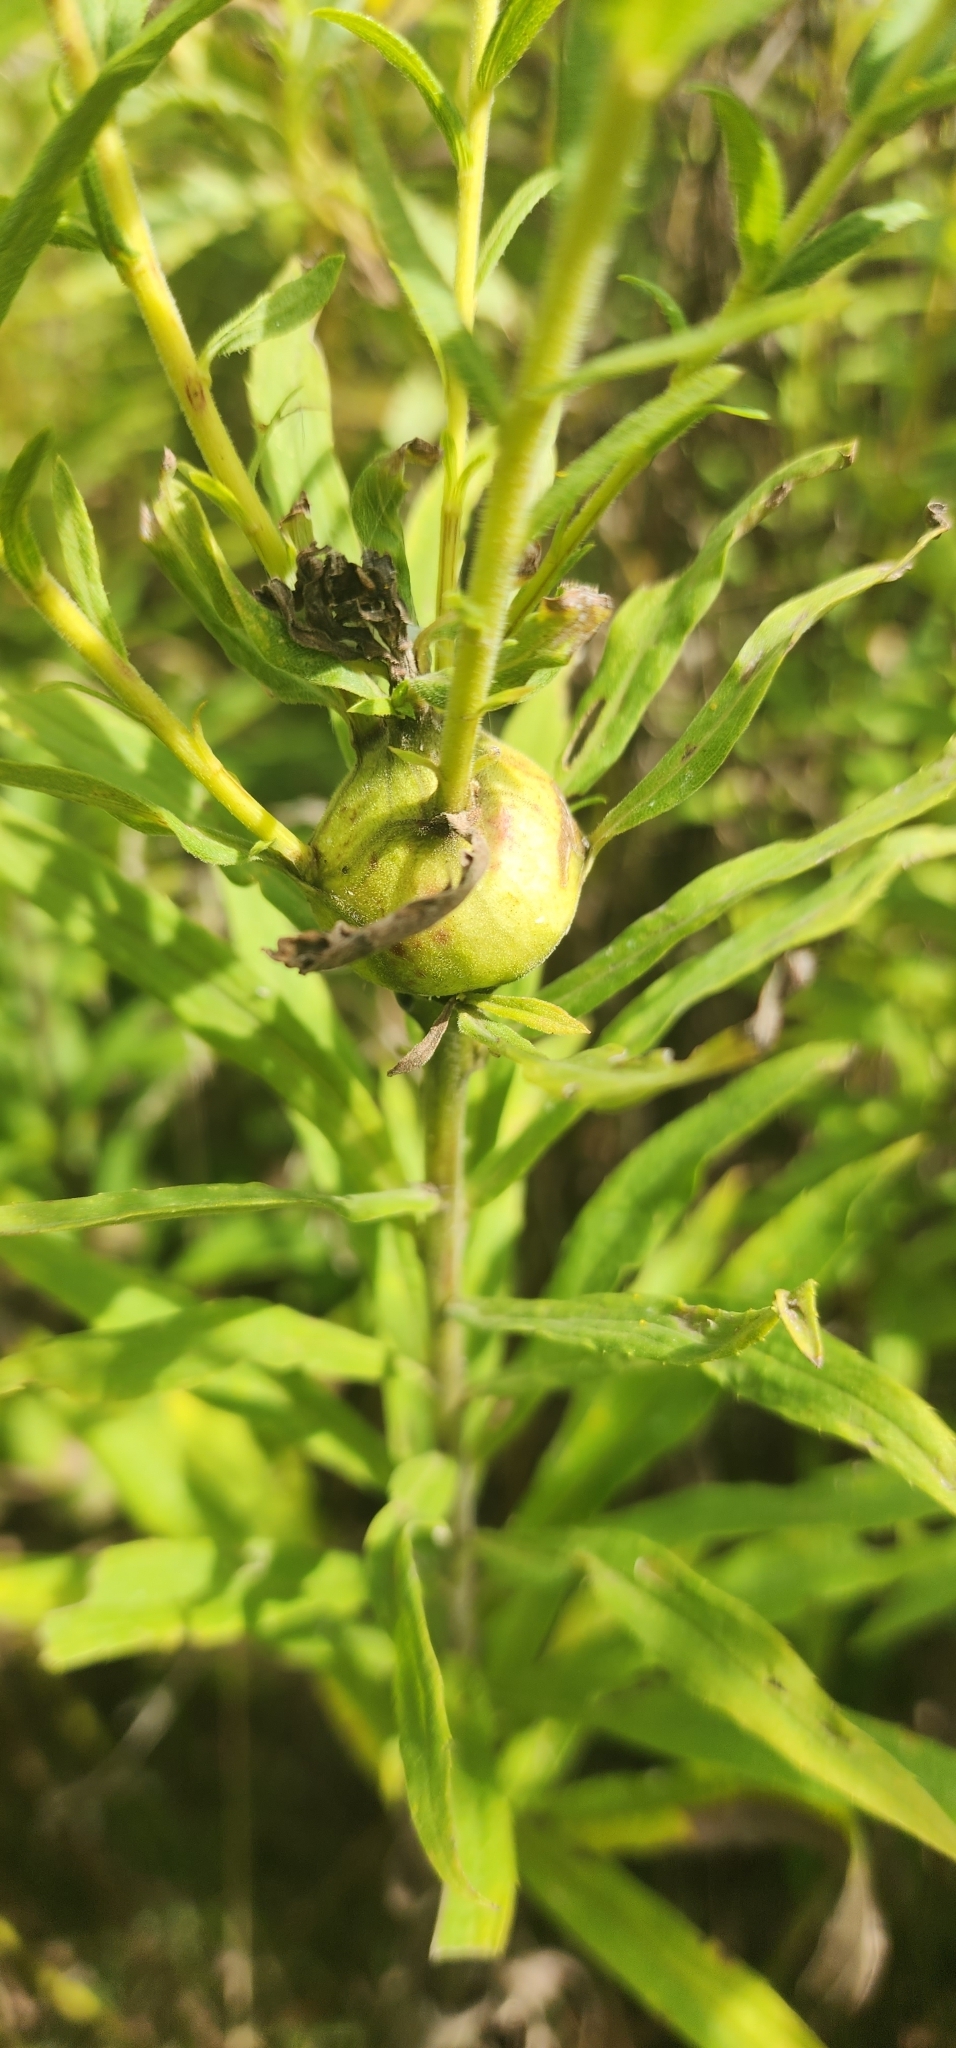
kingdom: Animalia
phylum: Arthropoda
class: Insecta
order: Diptera
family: Tephritidae
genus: Eurosta
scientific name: Eurosta solidaginis
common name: Goldenrod gall fly
